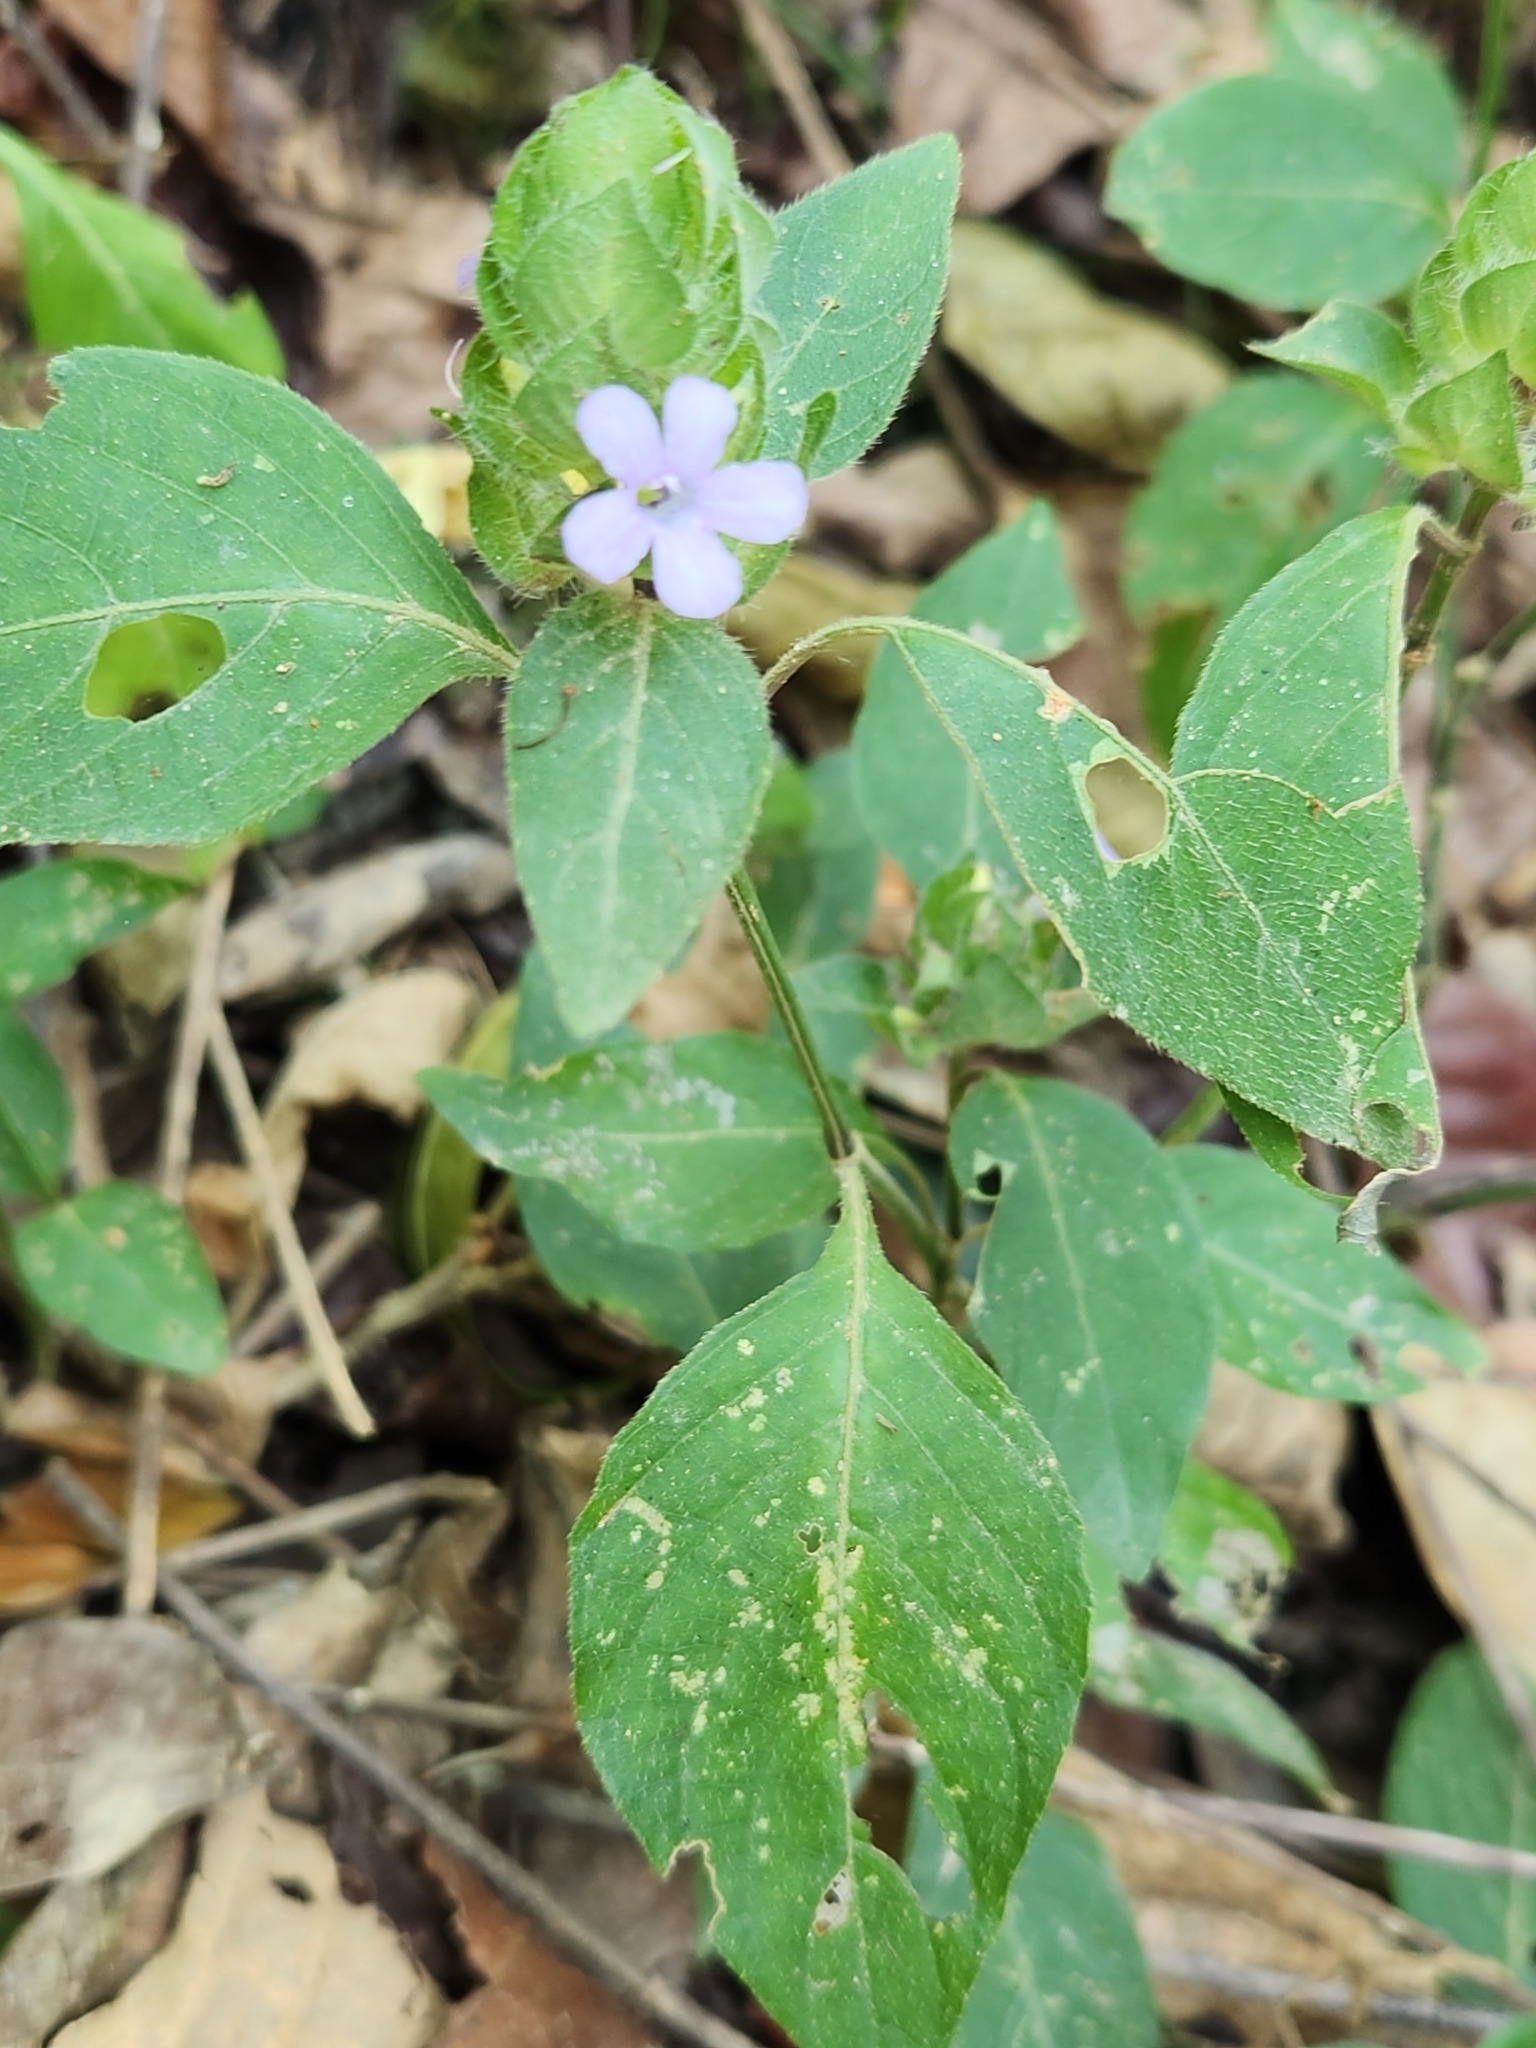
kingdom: Plantae
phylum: Tracheophyta
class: Magnoliopsida
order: Lamiales
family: Acanthaceae
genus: Ruellia
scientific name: Ruellia blechum
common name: Browne's blechum
